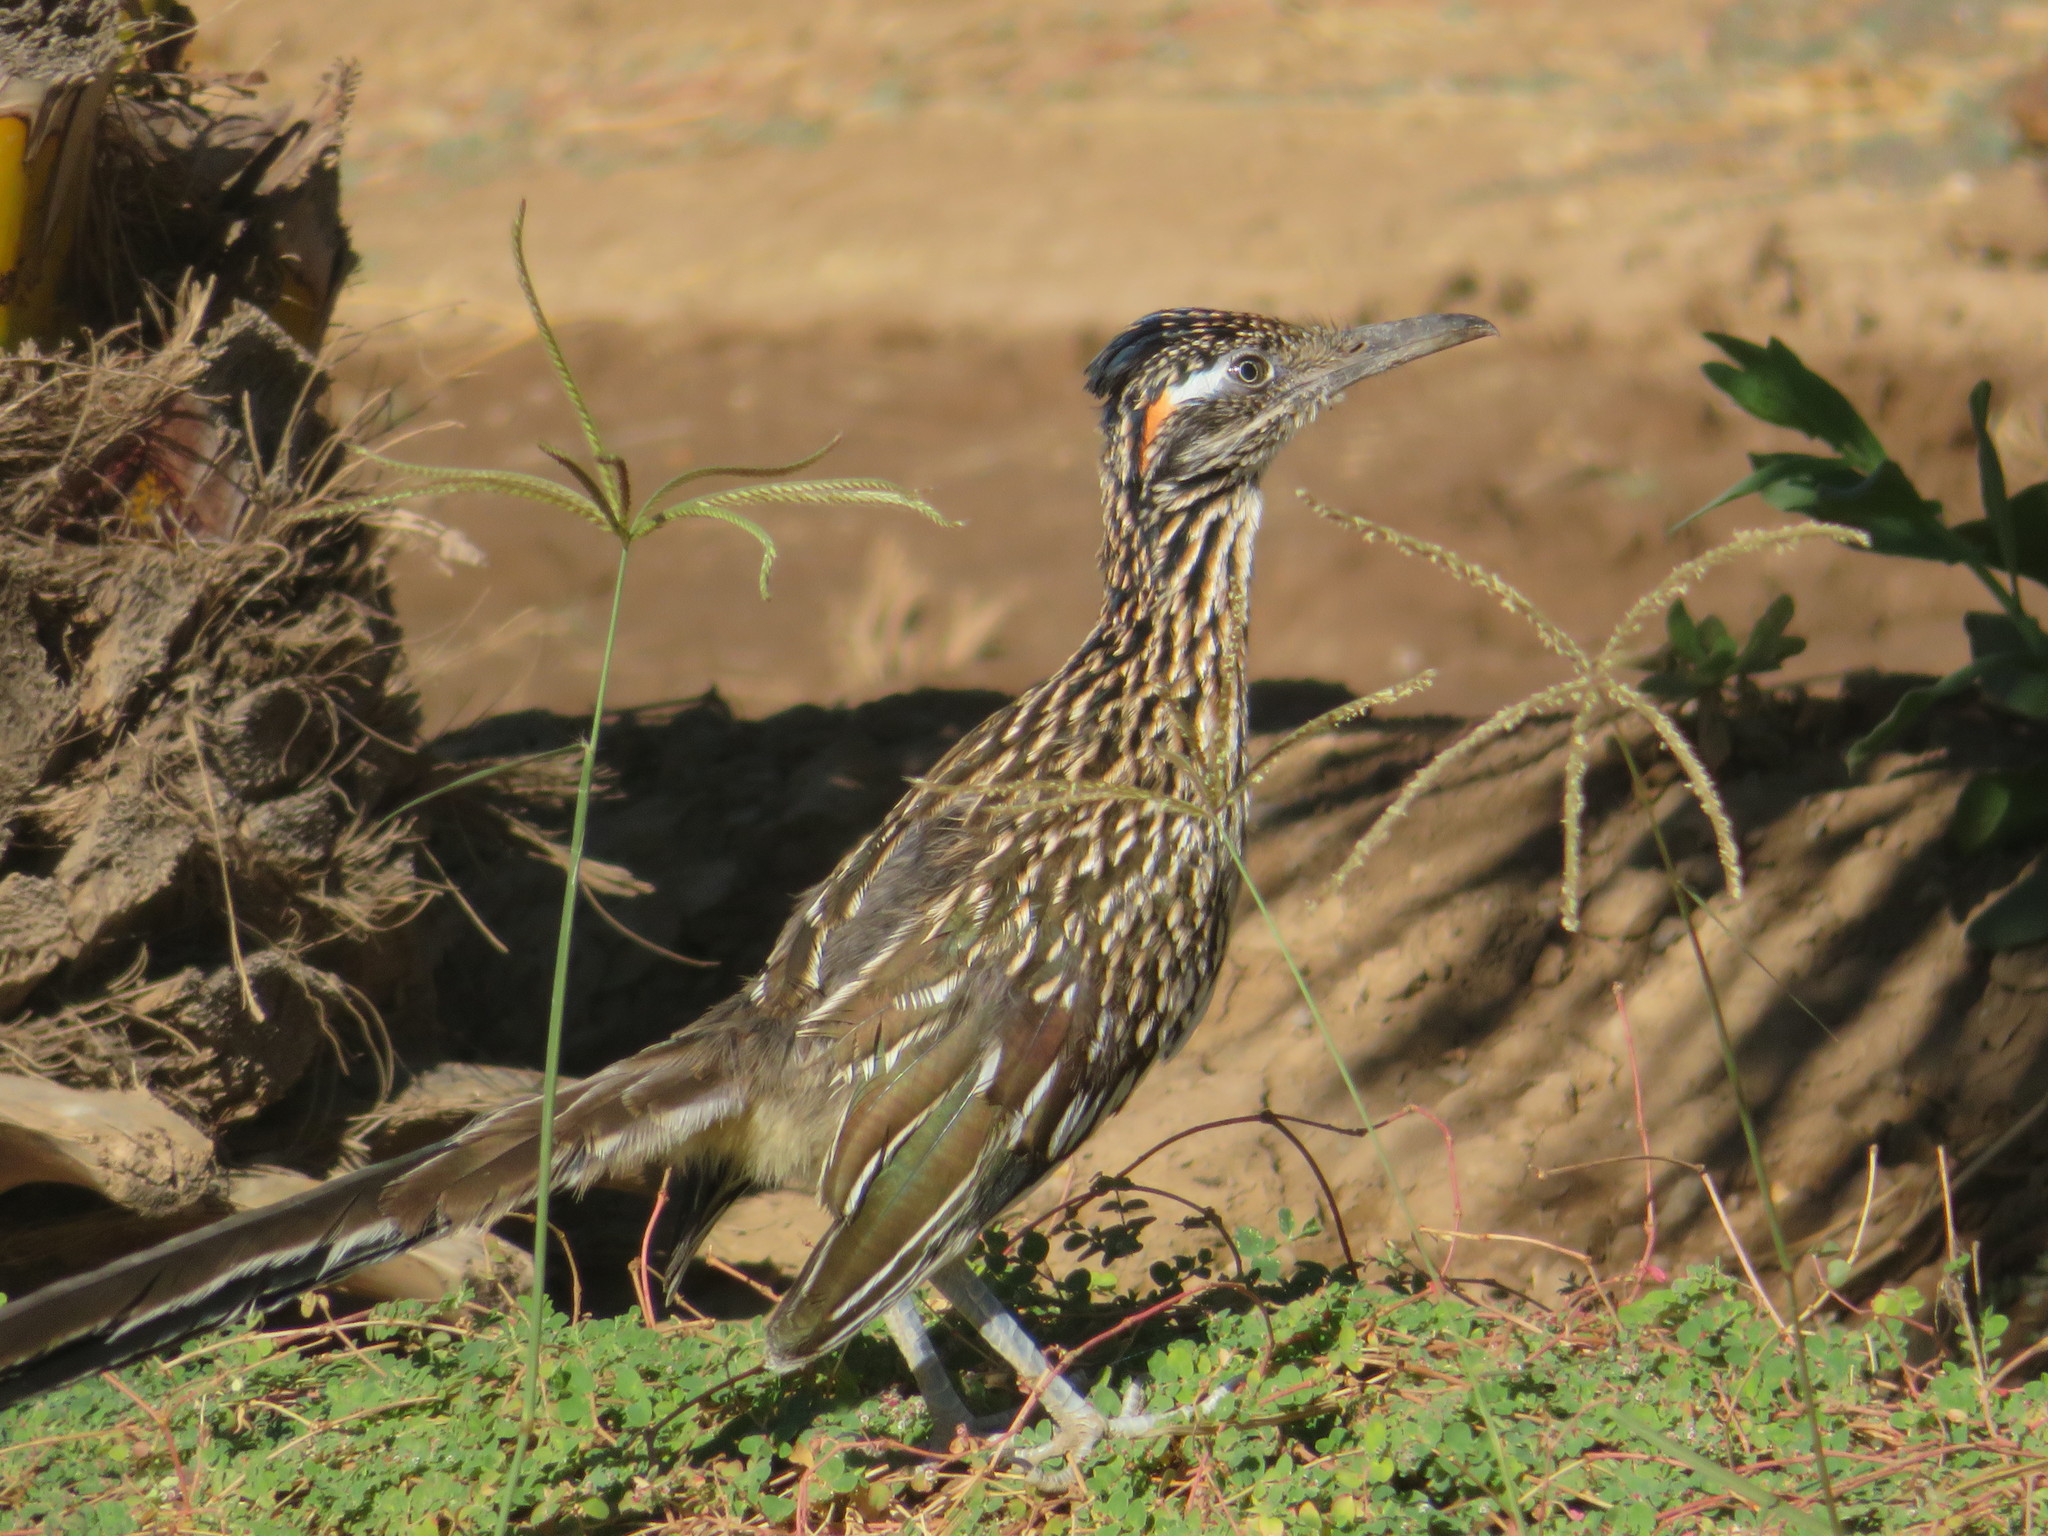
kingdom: Animalia
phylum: Chordata
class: Aves
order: Cuculiformes
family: Cuculidae
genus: Geococcyx
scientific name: Geococcyx californianus
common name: Greater roadrunner
